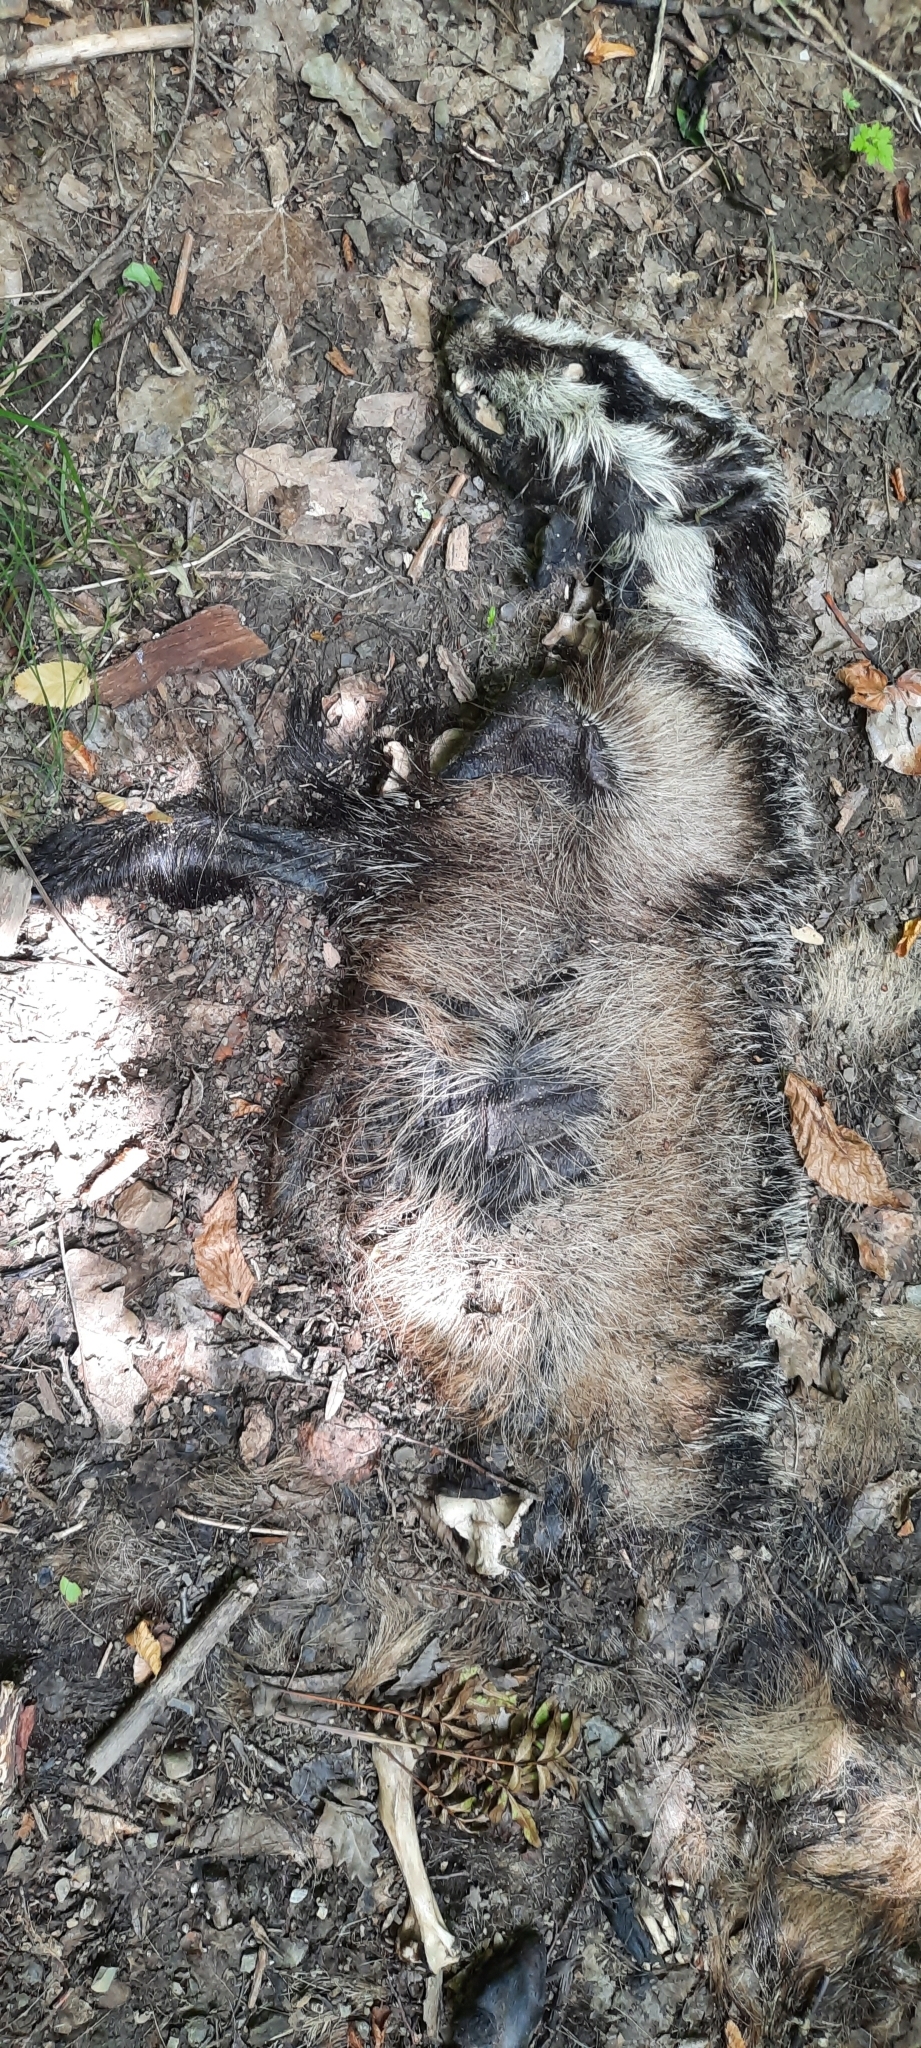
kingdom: Animalia
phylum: Chordata
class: Mammalia
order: Carnivora
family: Mustelidae
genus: Meles
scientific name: Meles meles
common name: Eurasian badger
